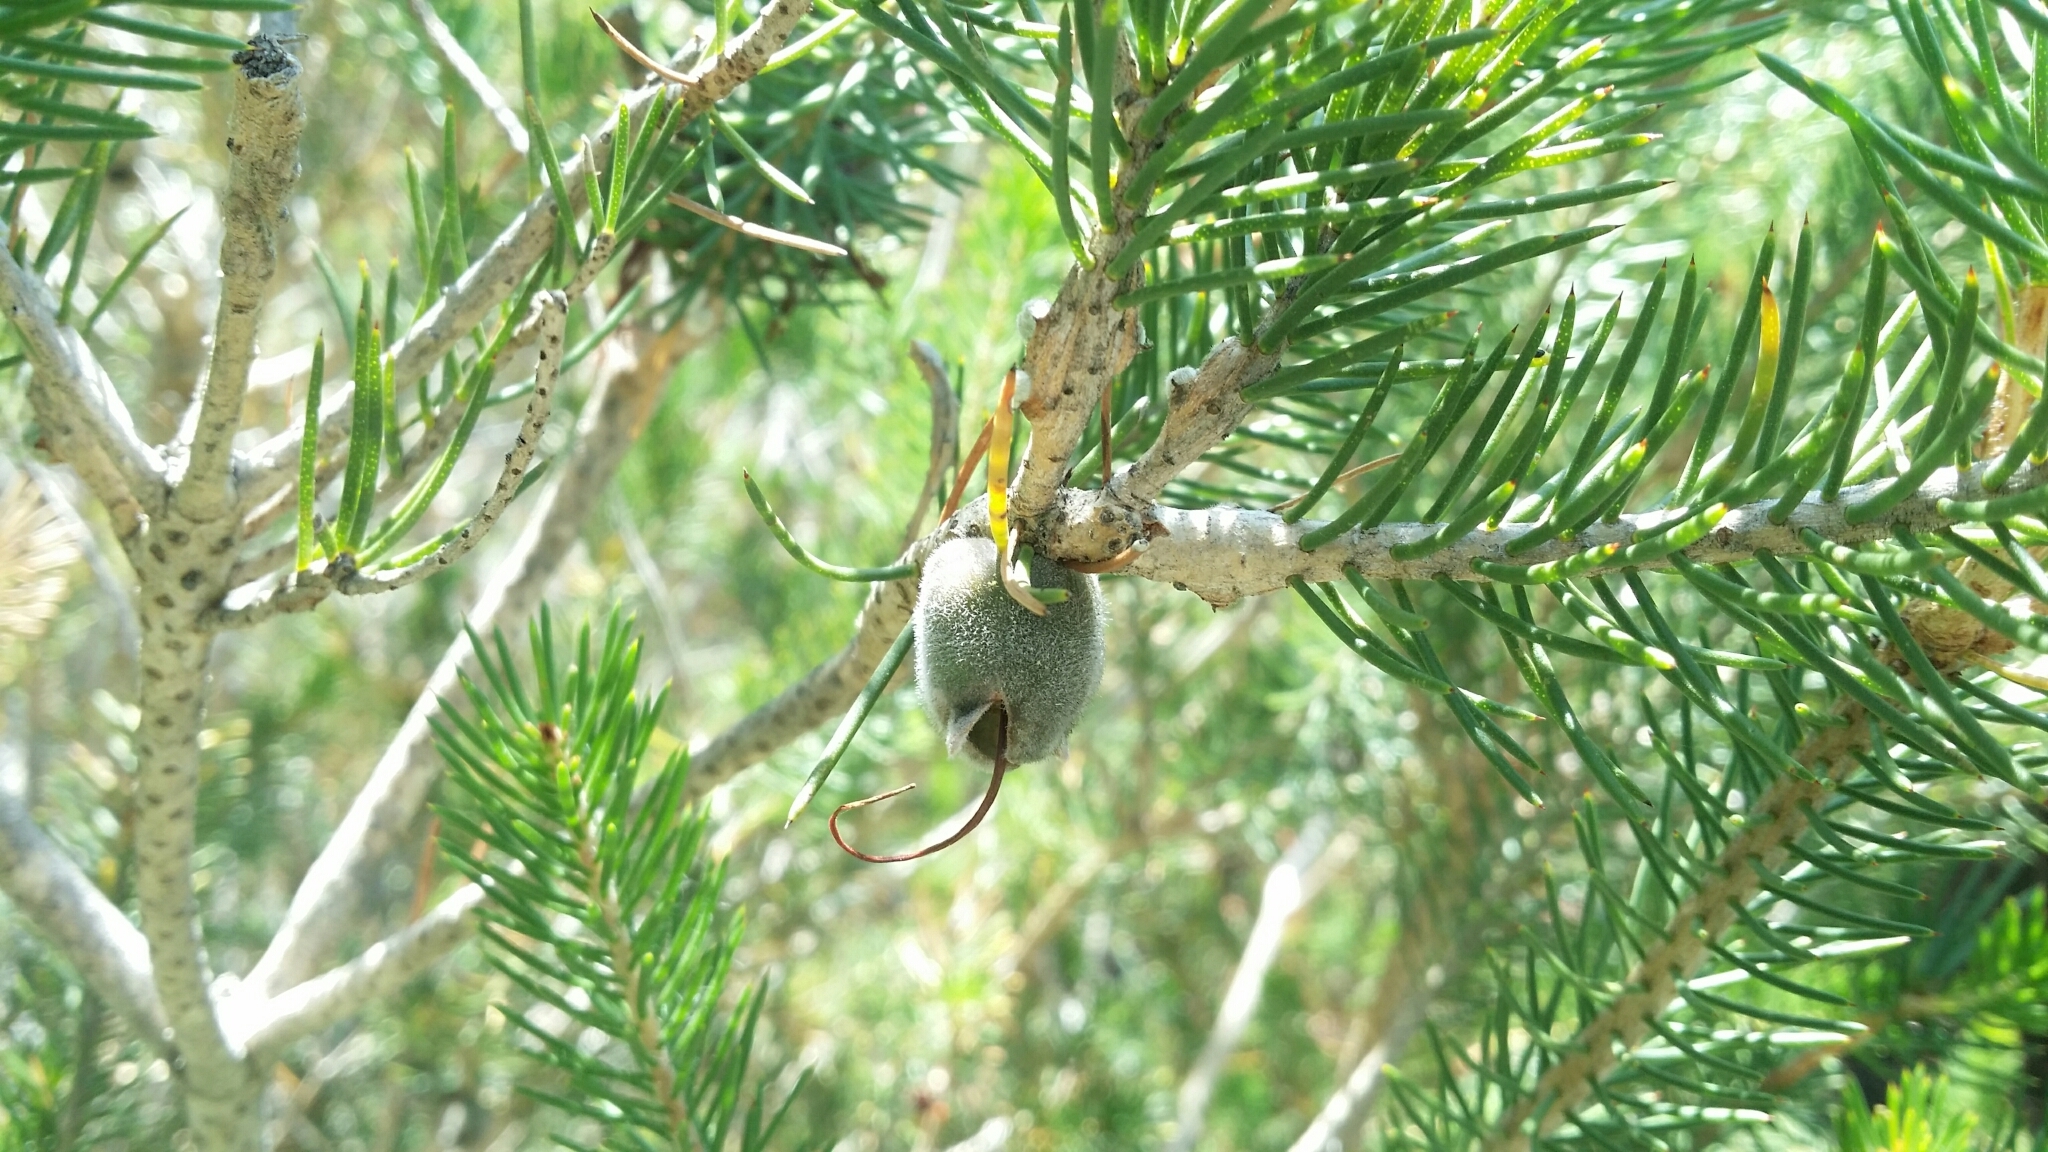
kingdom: Plantae
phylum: Tracheophyta
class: Magnoliopsida
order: Myrtales
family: Myrtaceae
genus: Melaleuca
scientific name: Melaleuca rupestris
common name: Cliff net-bush
